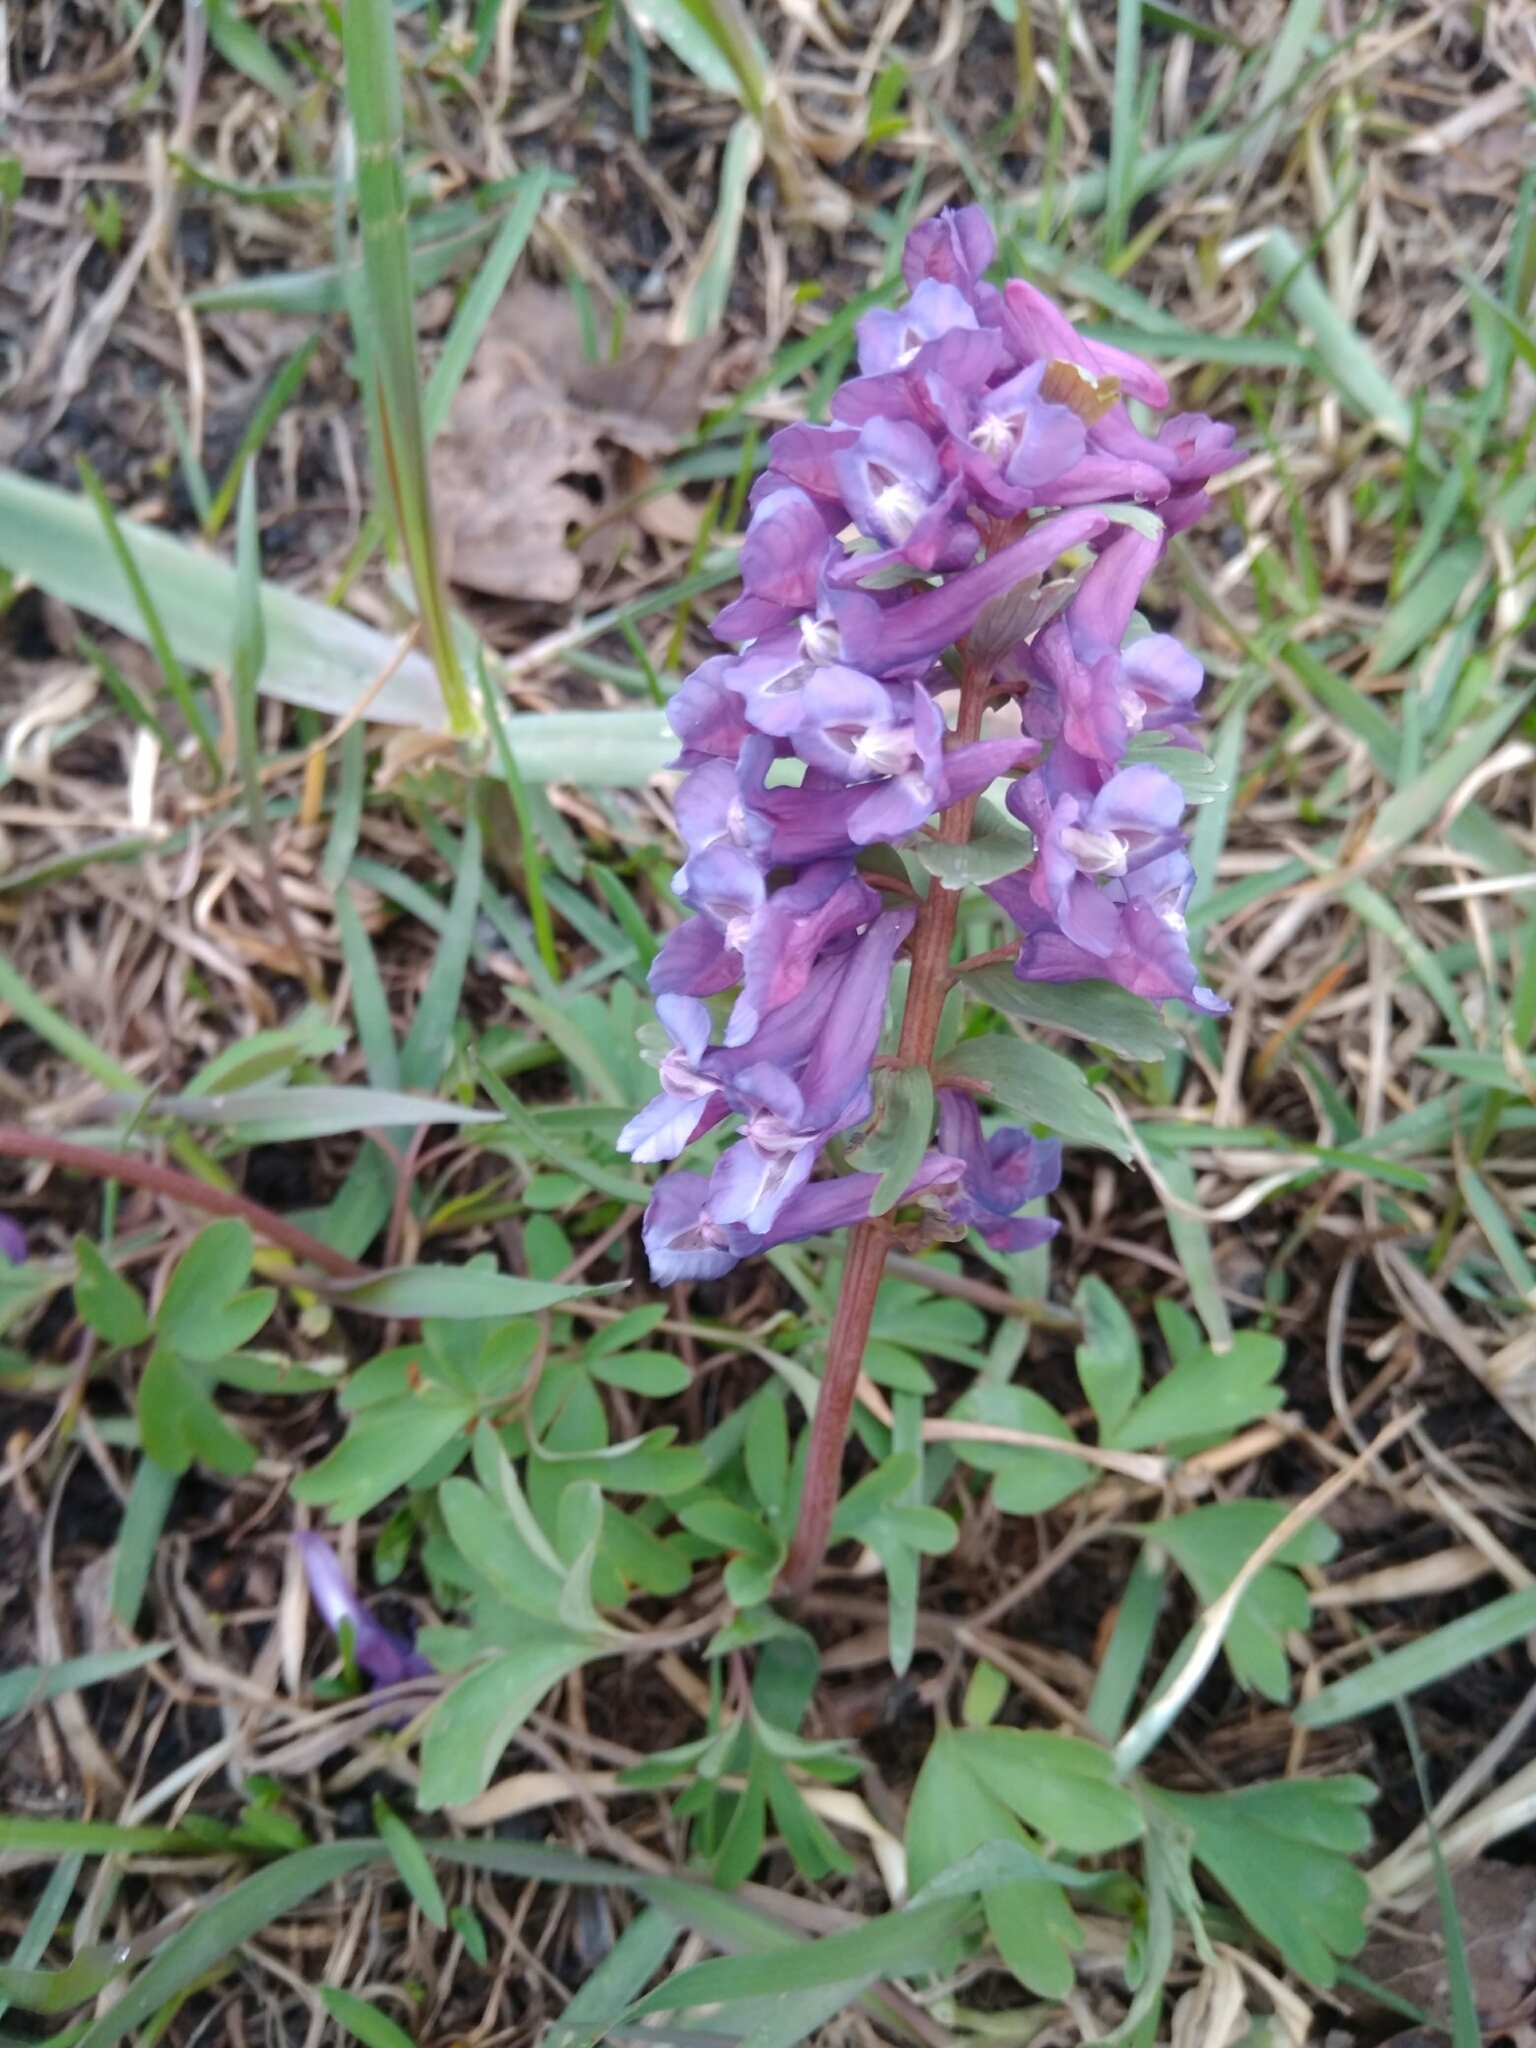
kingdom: Plantae
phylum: Tracheophyta
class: Magnoliopsida
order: Ranunculales
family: Papaveraceae
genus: Corydalis
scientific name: Corydalis solida
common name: Bird-in-a-bush
